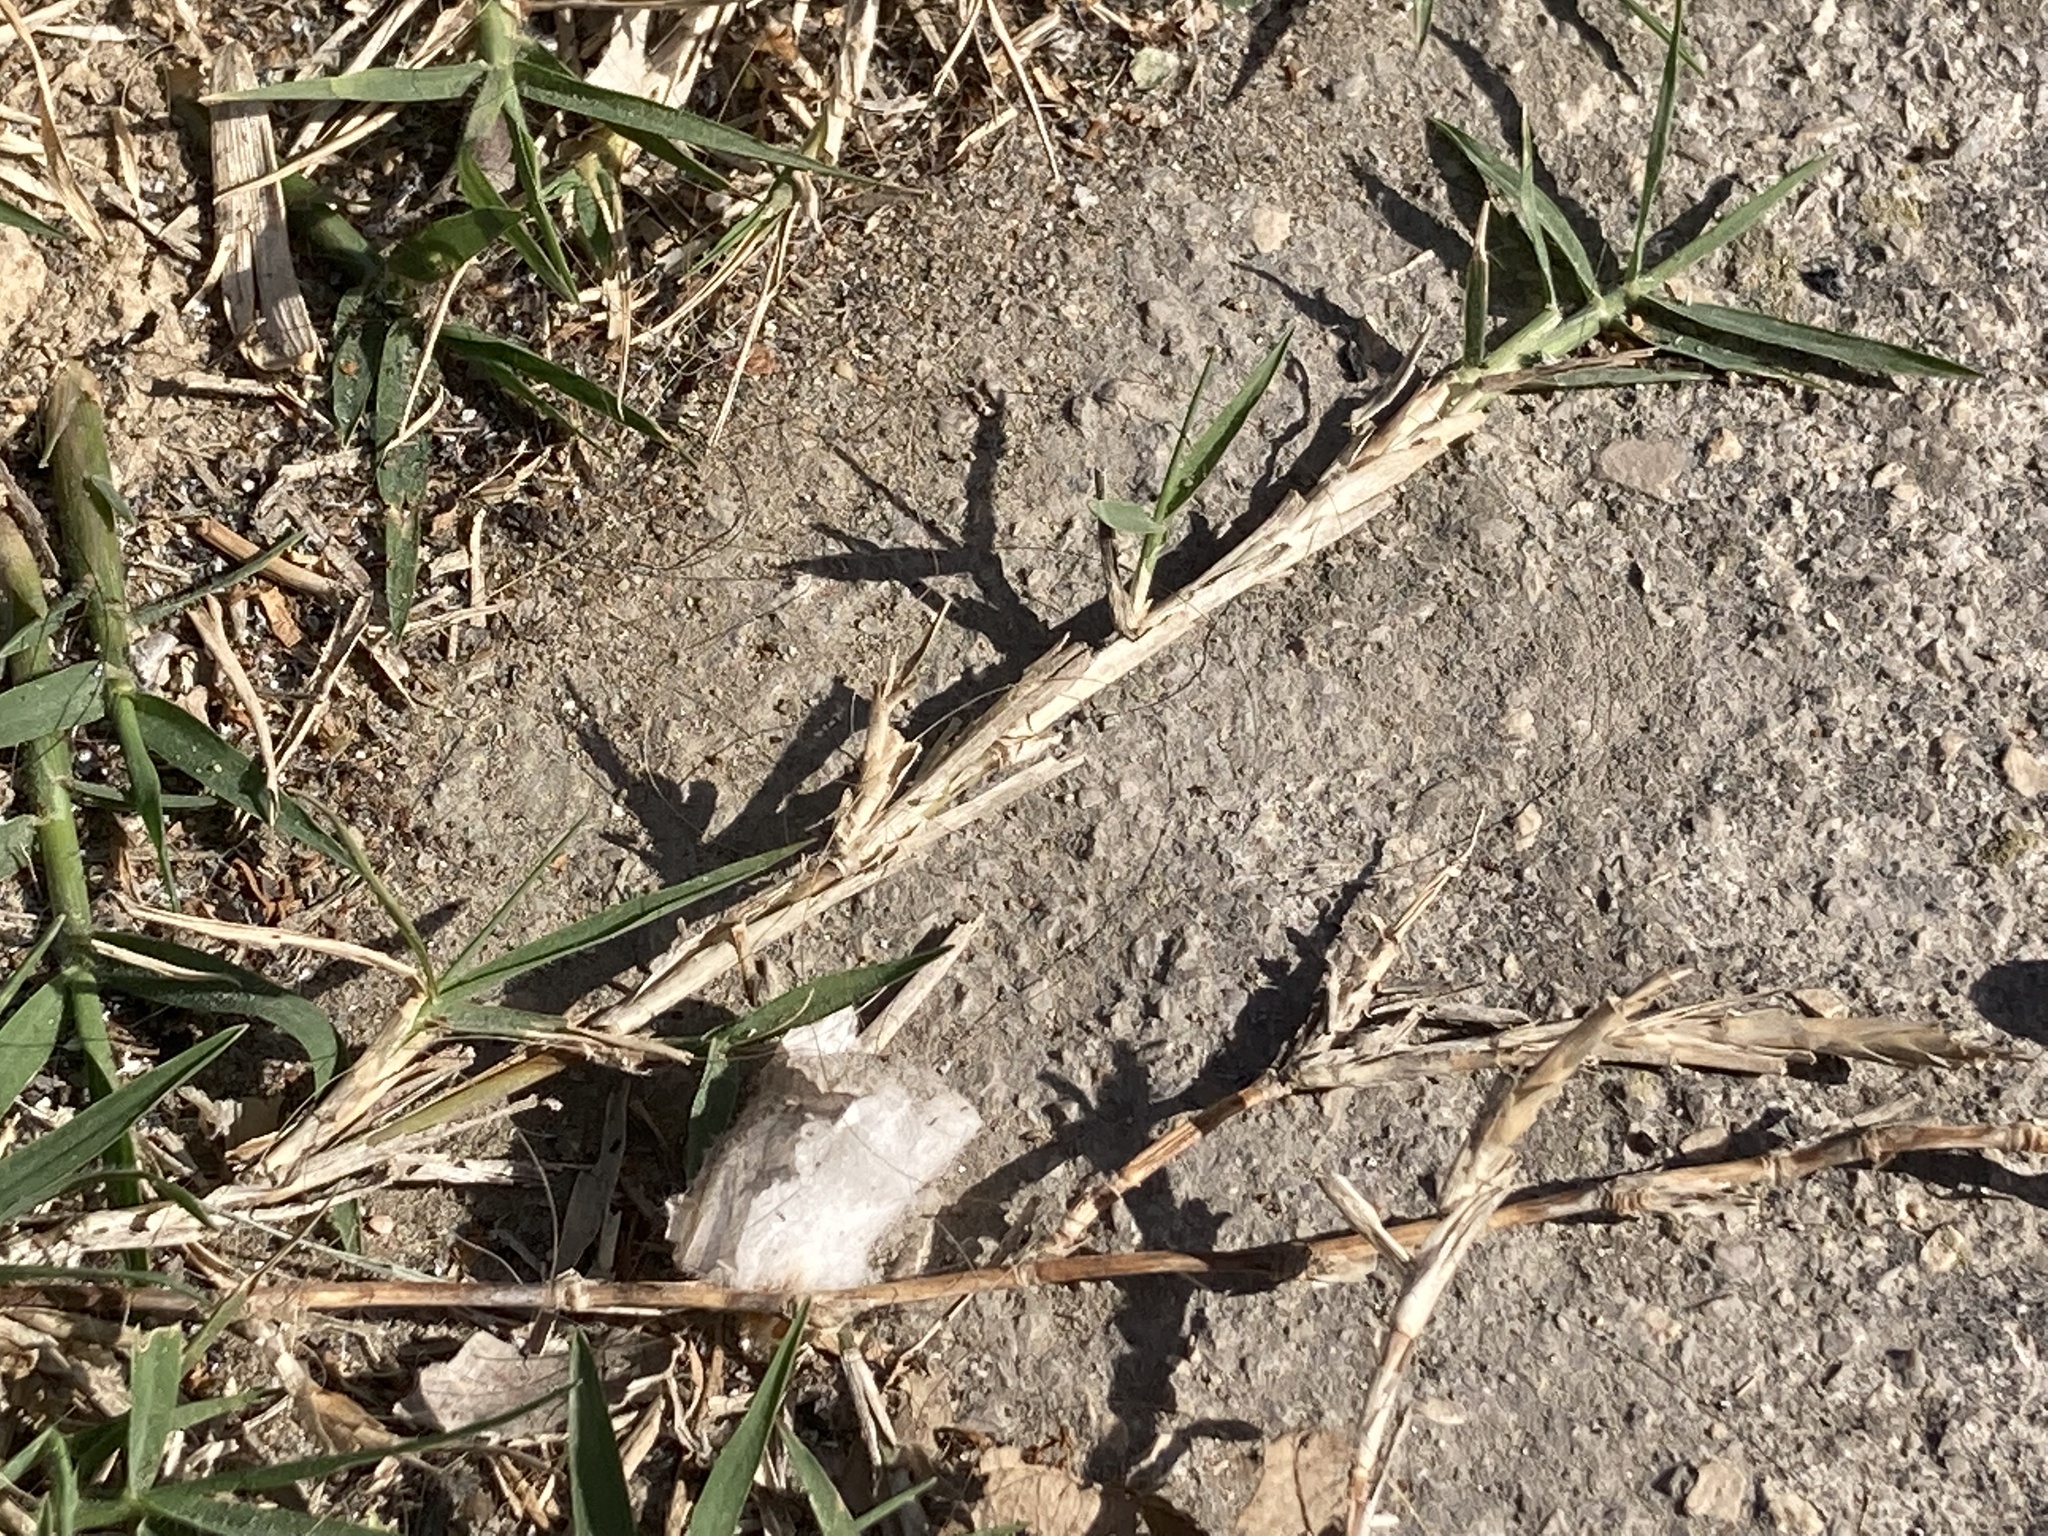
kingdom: Plantae
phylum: Tracheophyta
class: Liliopsida
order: Poales
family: Poaceae
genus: Cynodon
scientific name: Cynodon dactylon
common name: Bermuda grass
